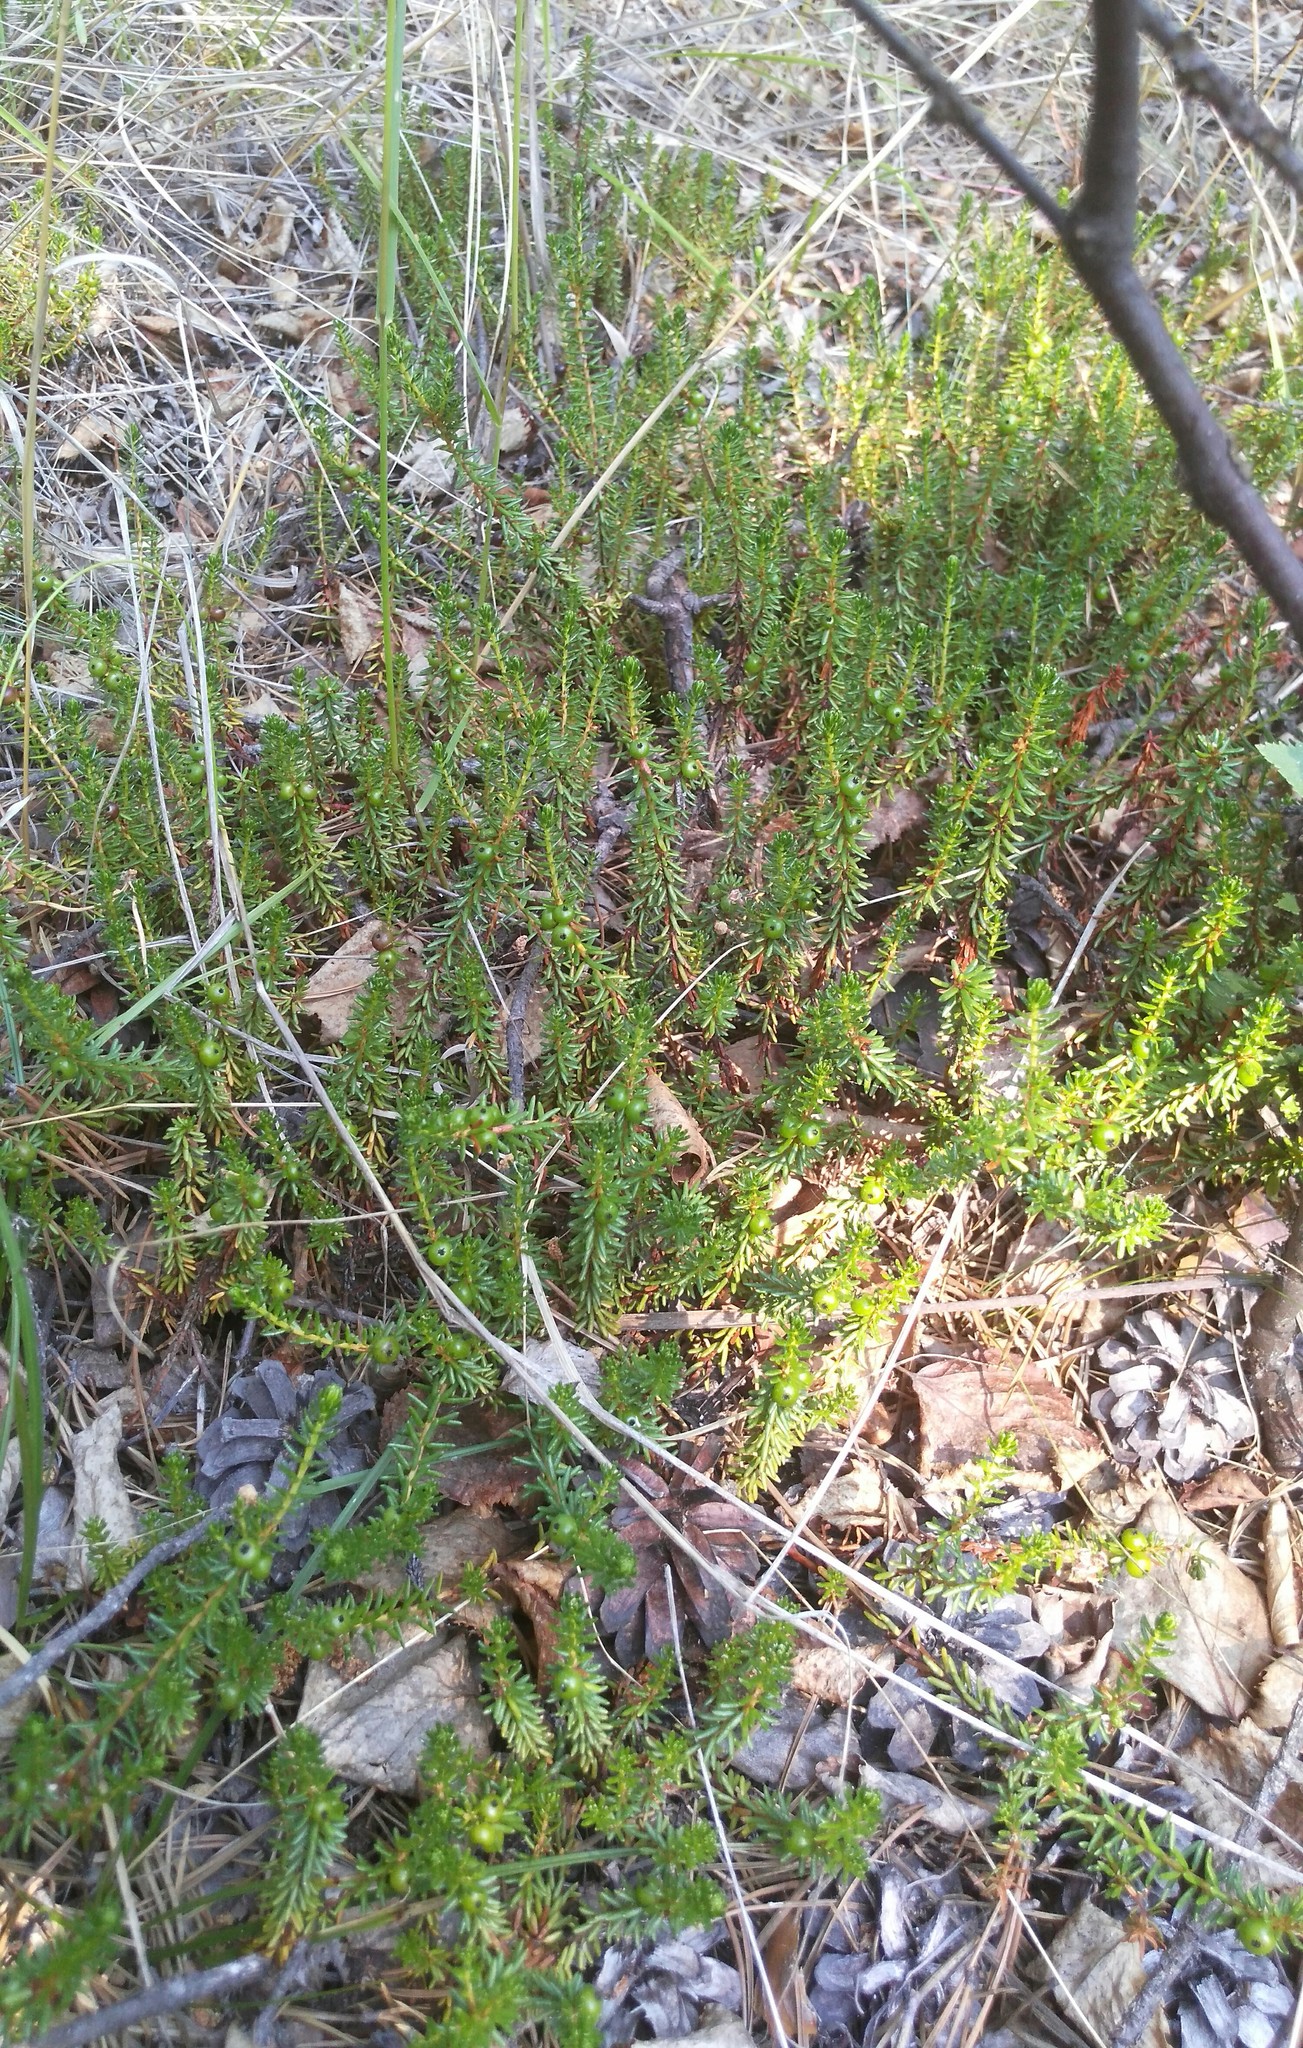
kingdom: Plantae
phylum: Tracheophyta
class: Magnoliopsida
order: Ericales
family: Ericaceae
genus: Empetrum
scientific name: Empetrum nigrum
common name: Black crowberry
